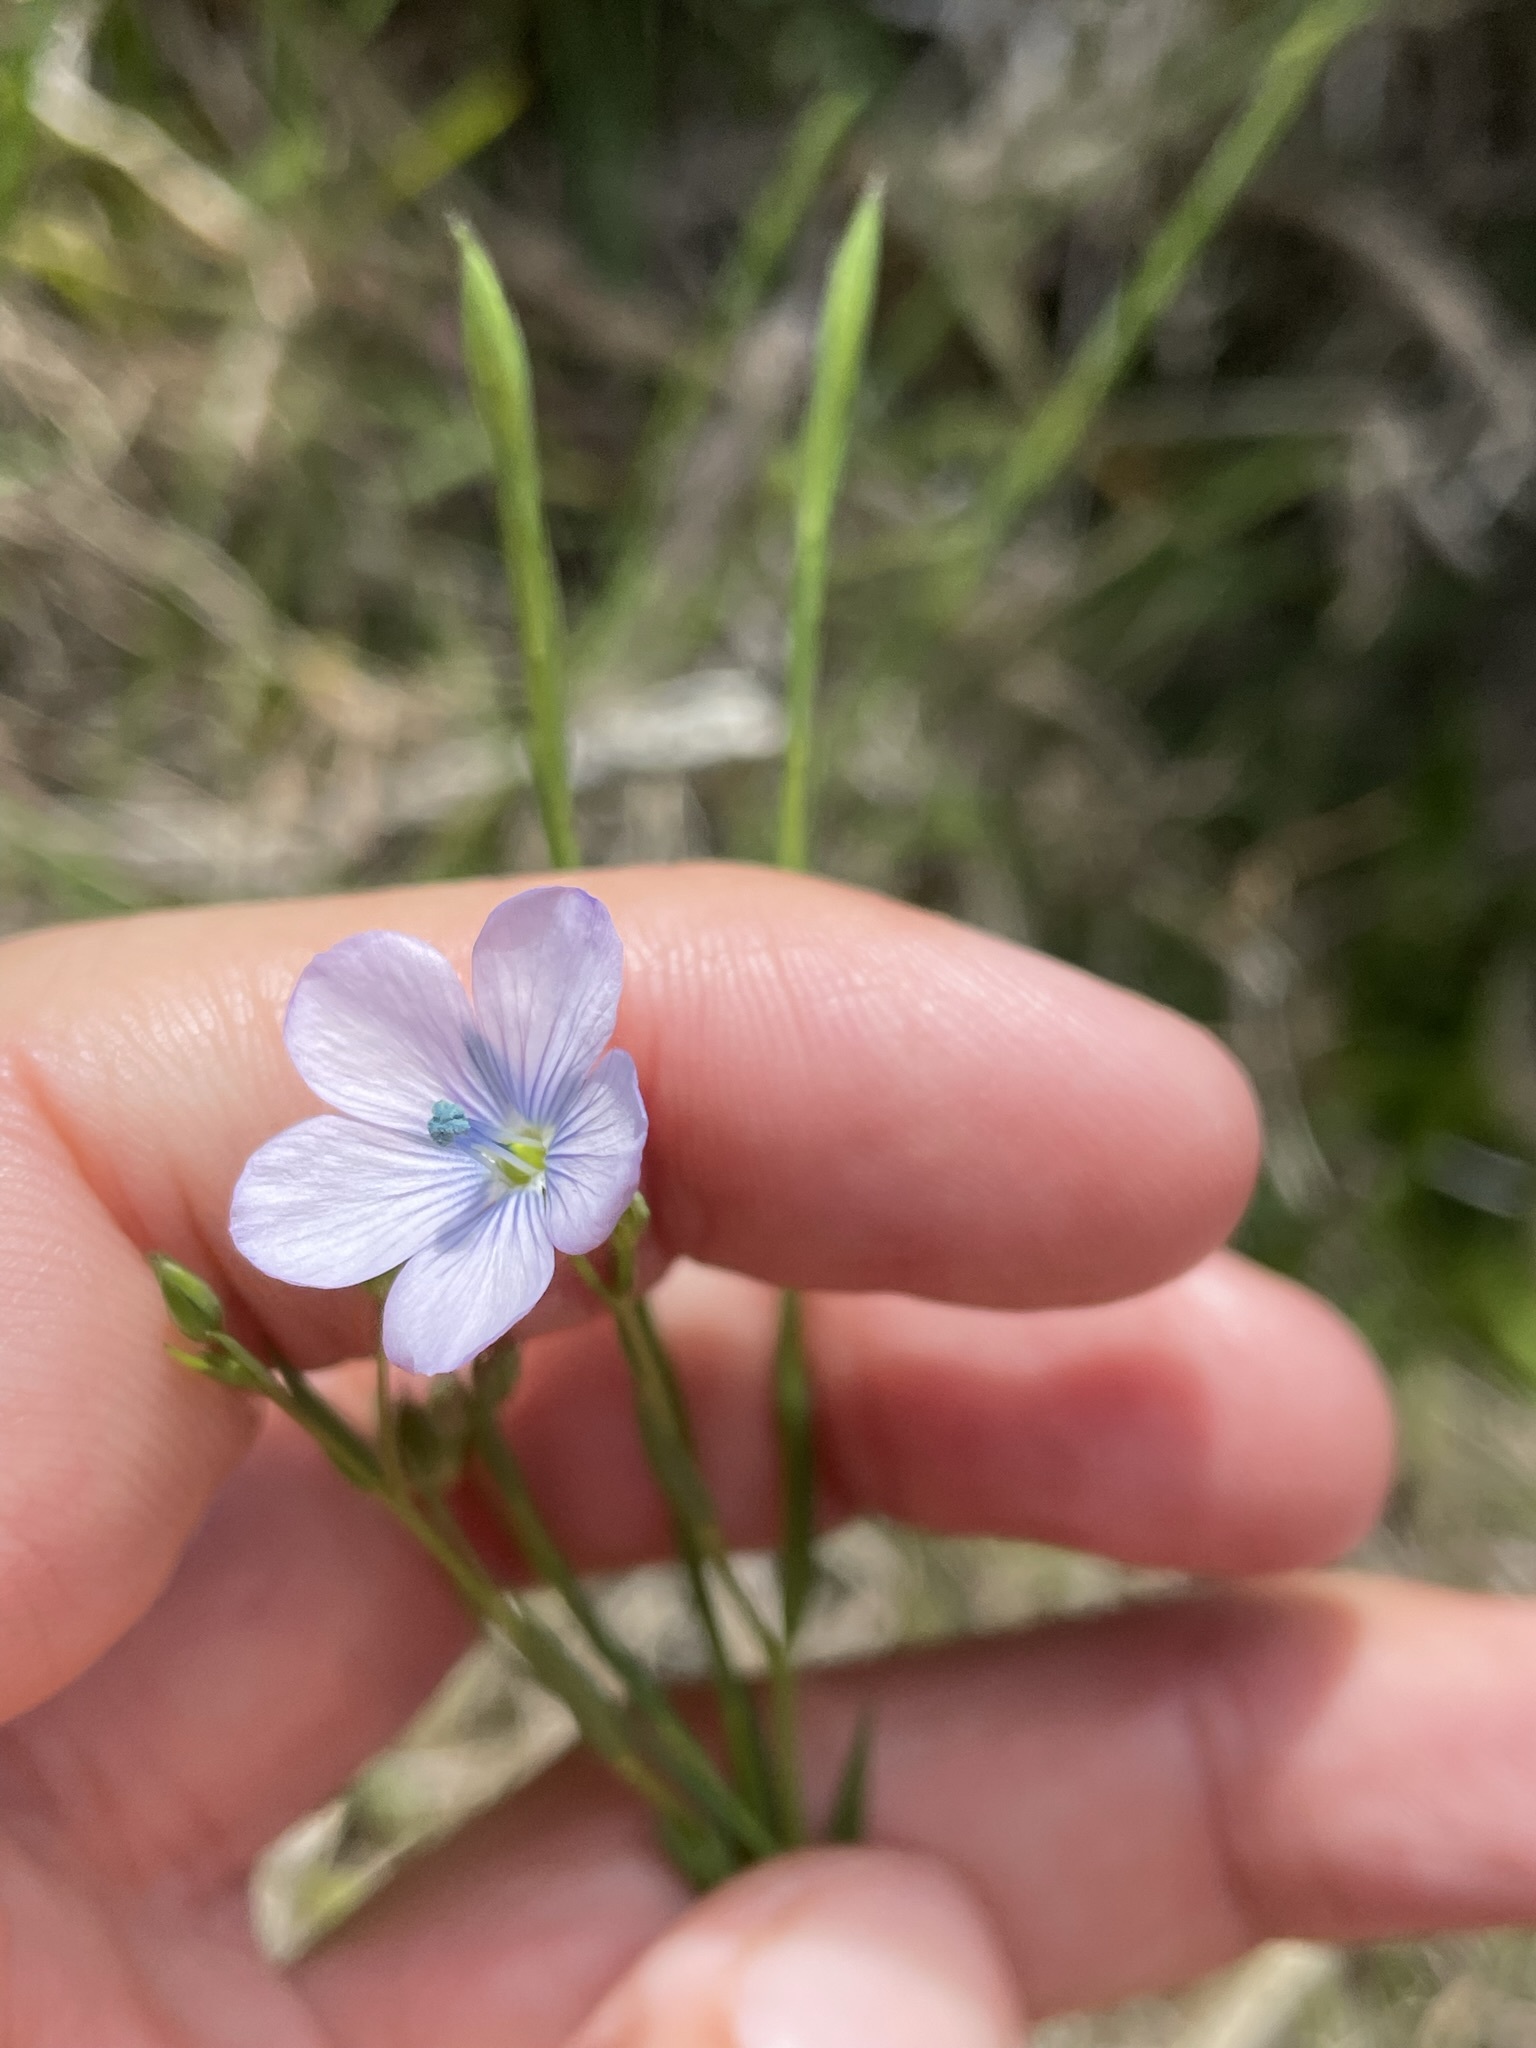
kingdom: Plantae
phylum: Tracheophyta
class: Magnoliopsida
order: Malpighiales
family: Linaceae
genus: Linum
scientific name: Linum bienne
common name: Pale flax
